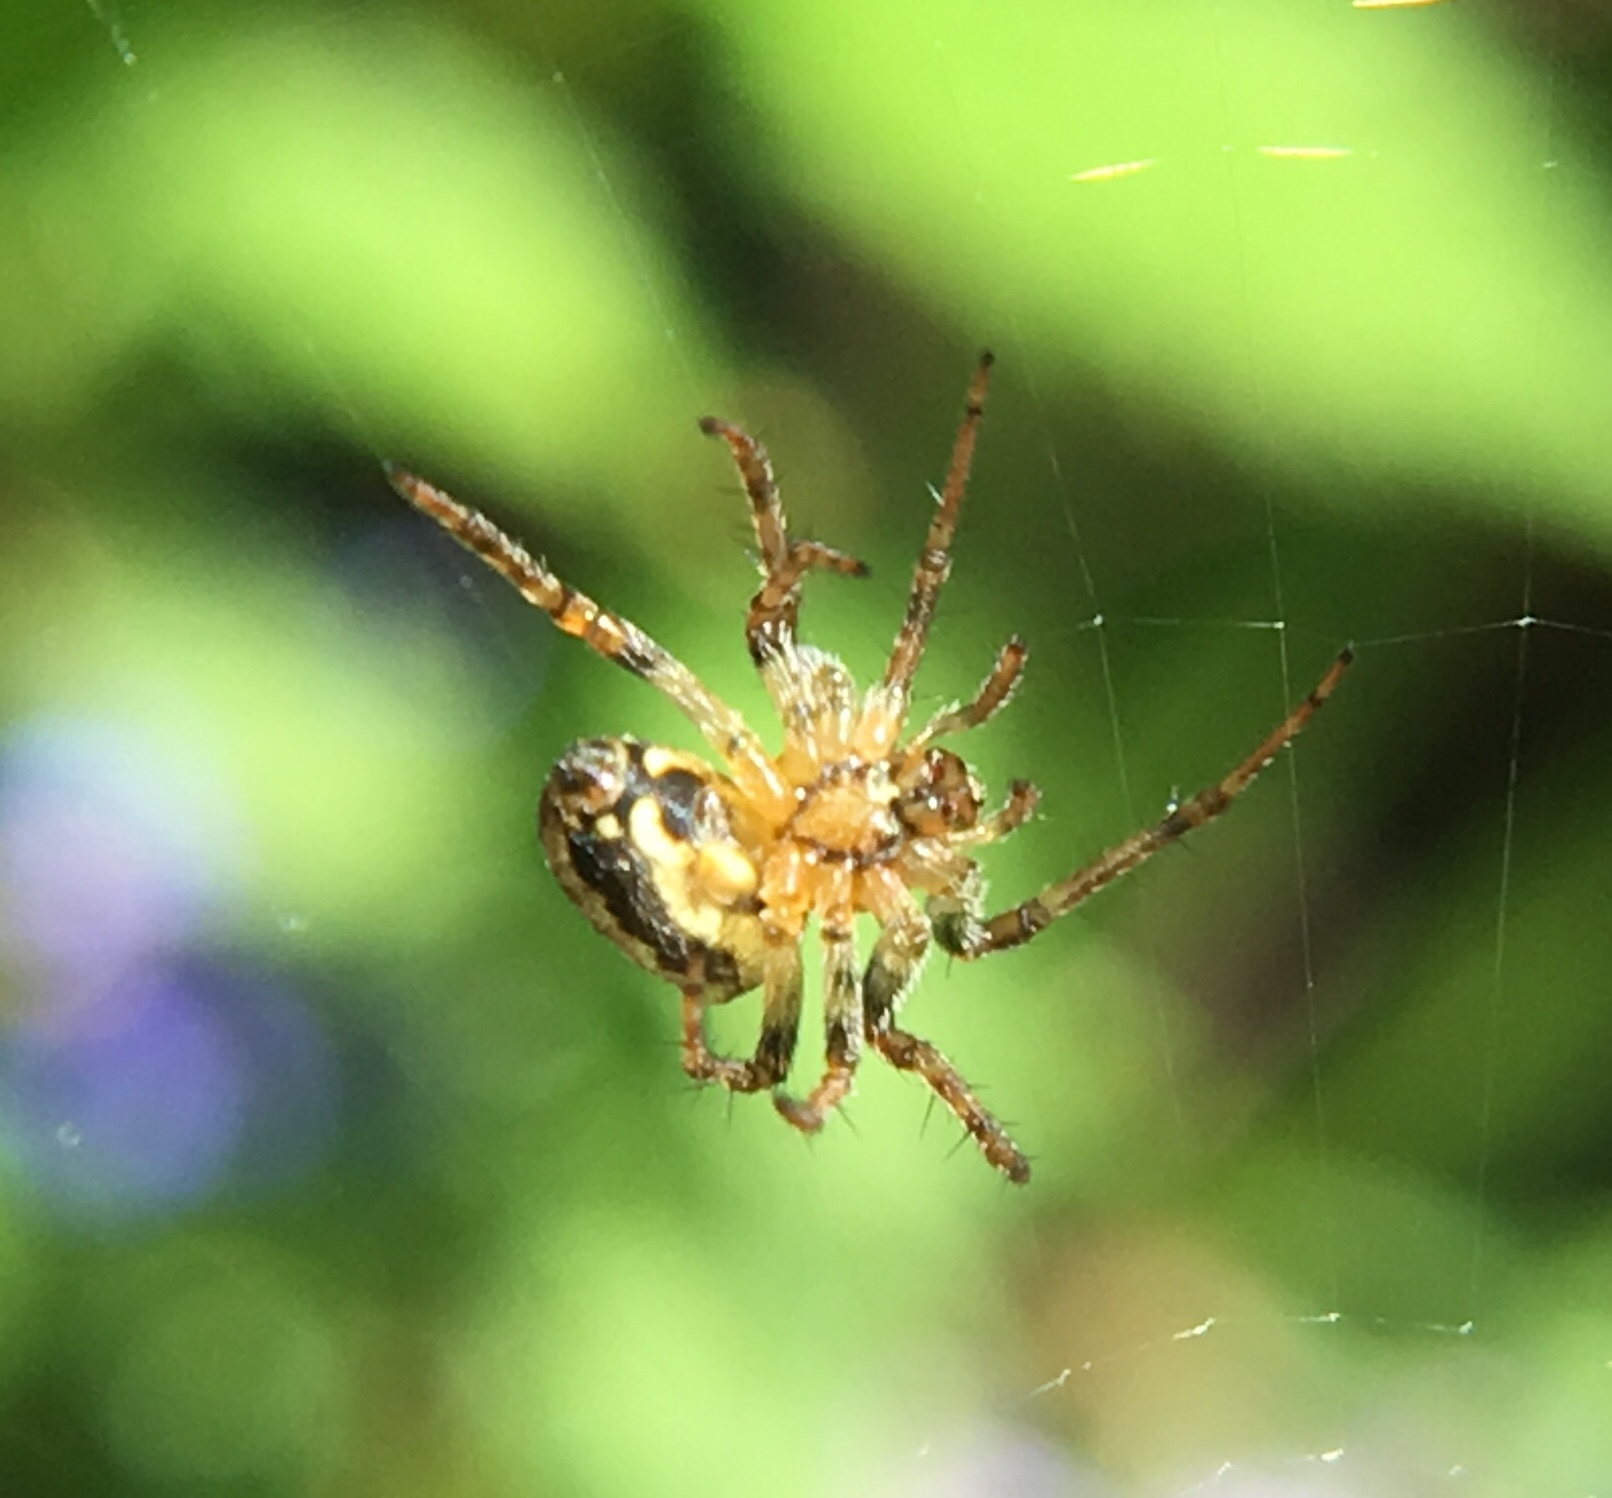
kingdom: Animalia
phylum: Arthropoda
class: Arachnida
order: Araneae
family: Araneidae
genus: Zilla
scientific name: Zilla diodia
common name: Zilla diodia
